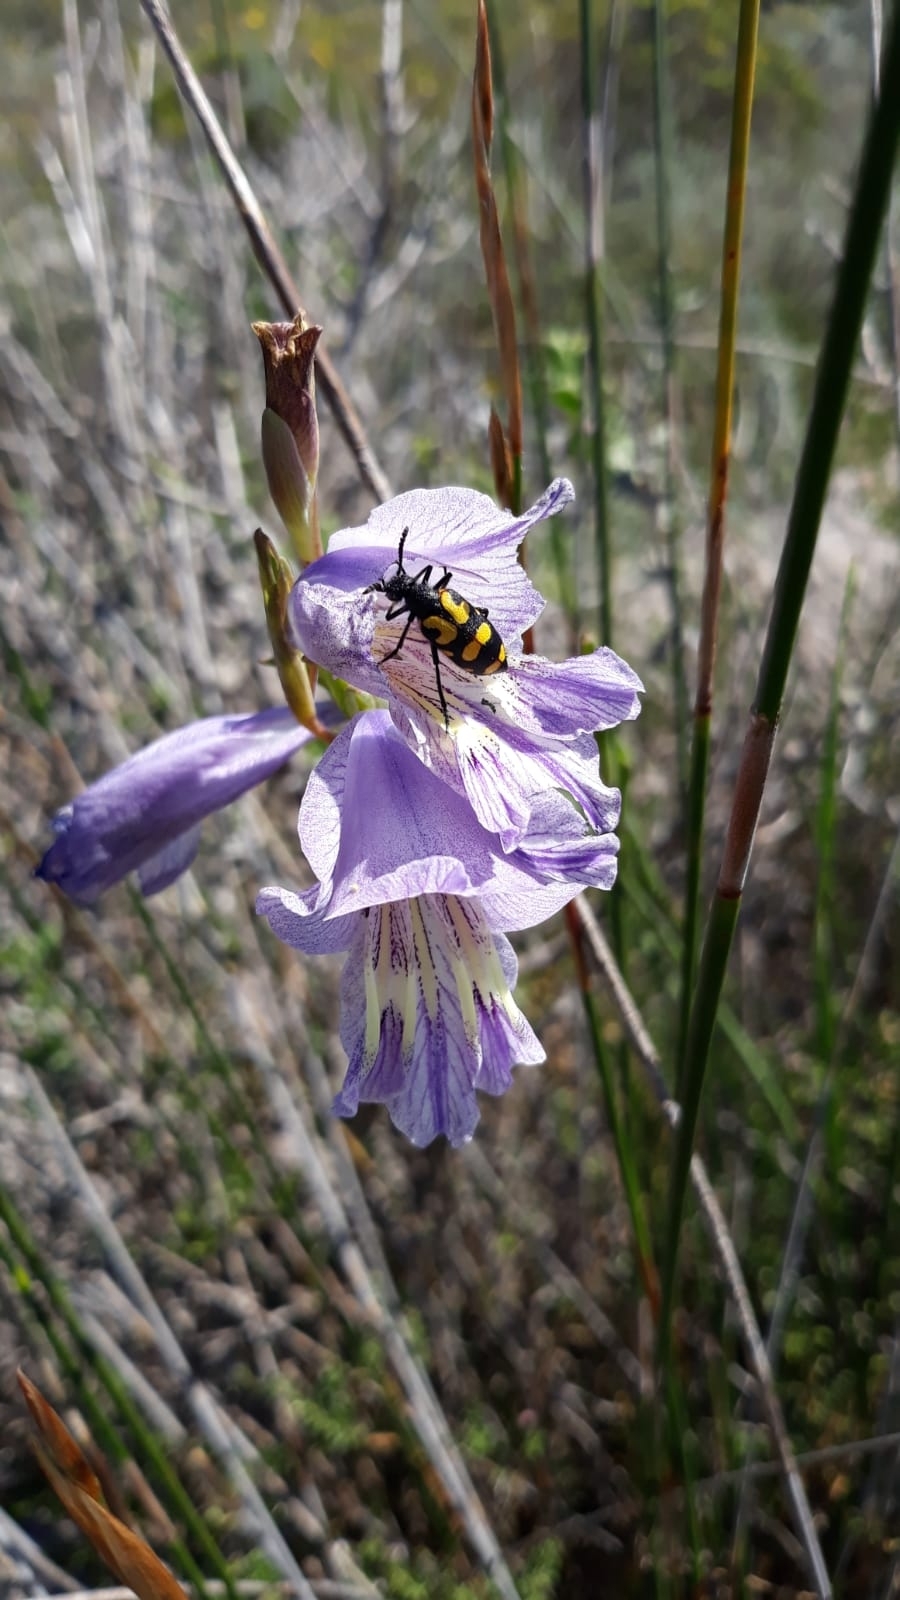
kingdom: Animalia
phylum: Arthropoda
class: Insecta
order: Coleoptera
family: Meloidae
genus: Ceroctis
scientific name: Ceroctis capensis
